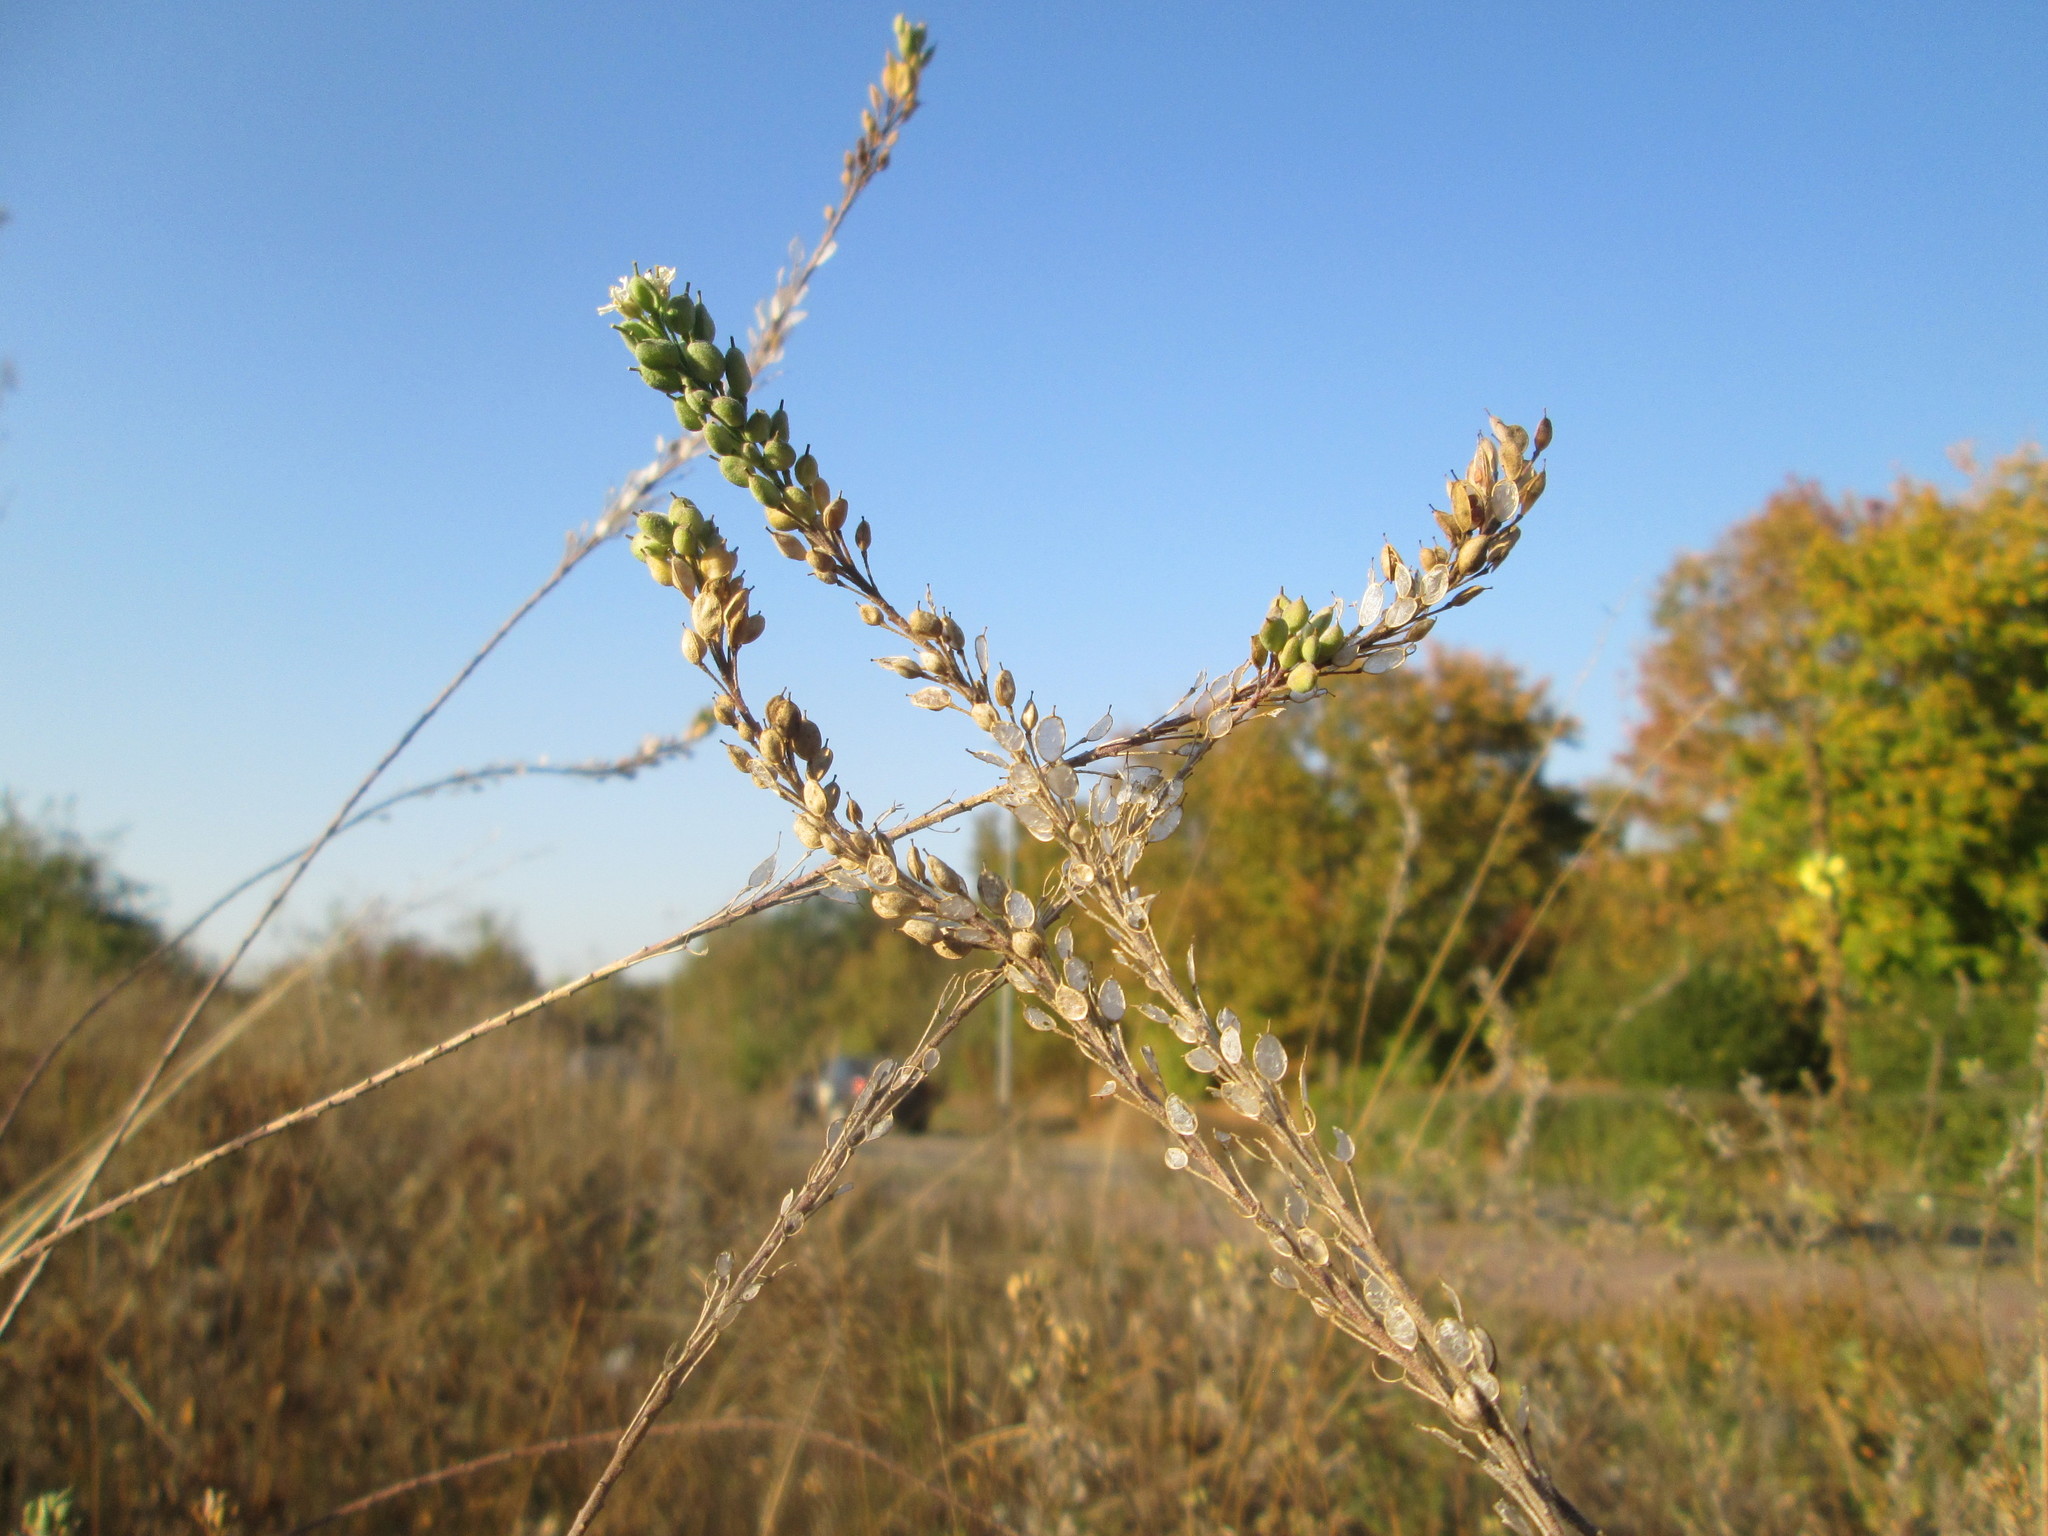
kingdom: Plantae
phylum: Tracheophyta
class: Magnoliopsida
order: Brassicales
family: Brassicaceae
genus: Berteroa
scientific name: Berteroa incana
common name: Hoary alison
